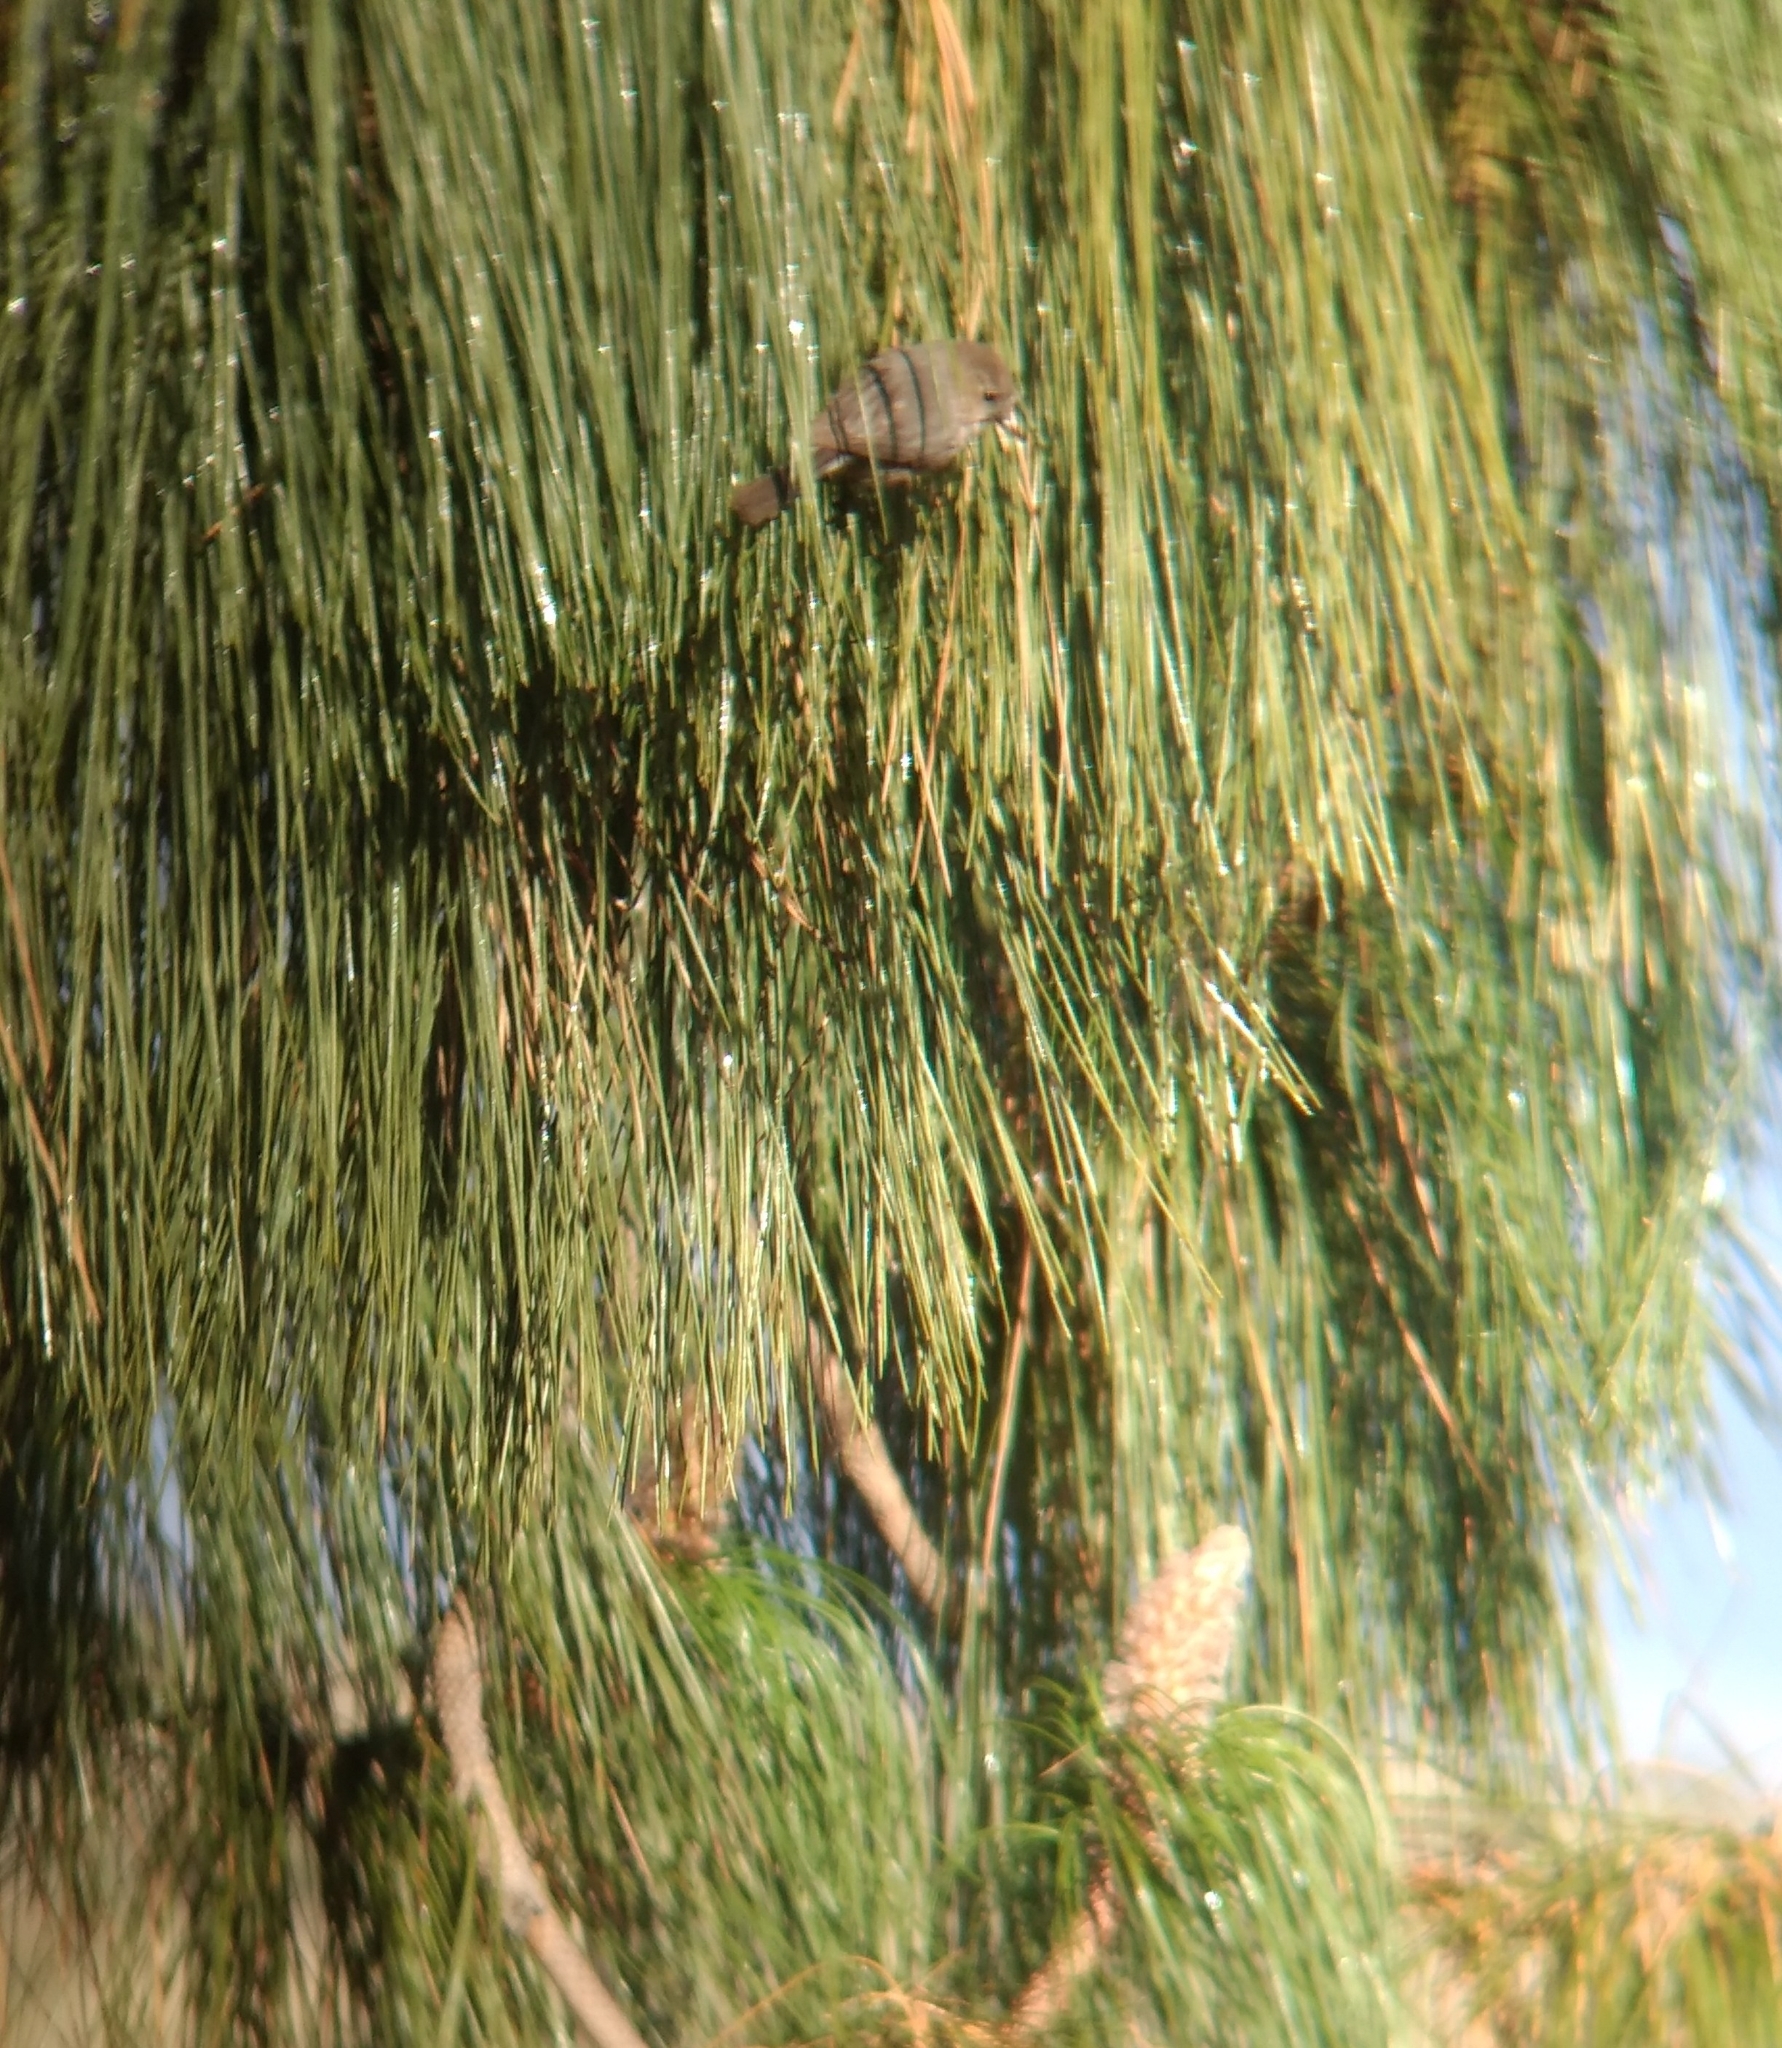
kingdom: Animalia
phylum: Chordata
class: Aves
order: Passeriformes
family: Aegithalidae
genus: Psaltriparus
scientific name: Psaltriparus minimus
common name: American bushtit
